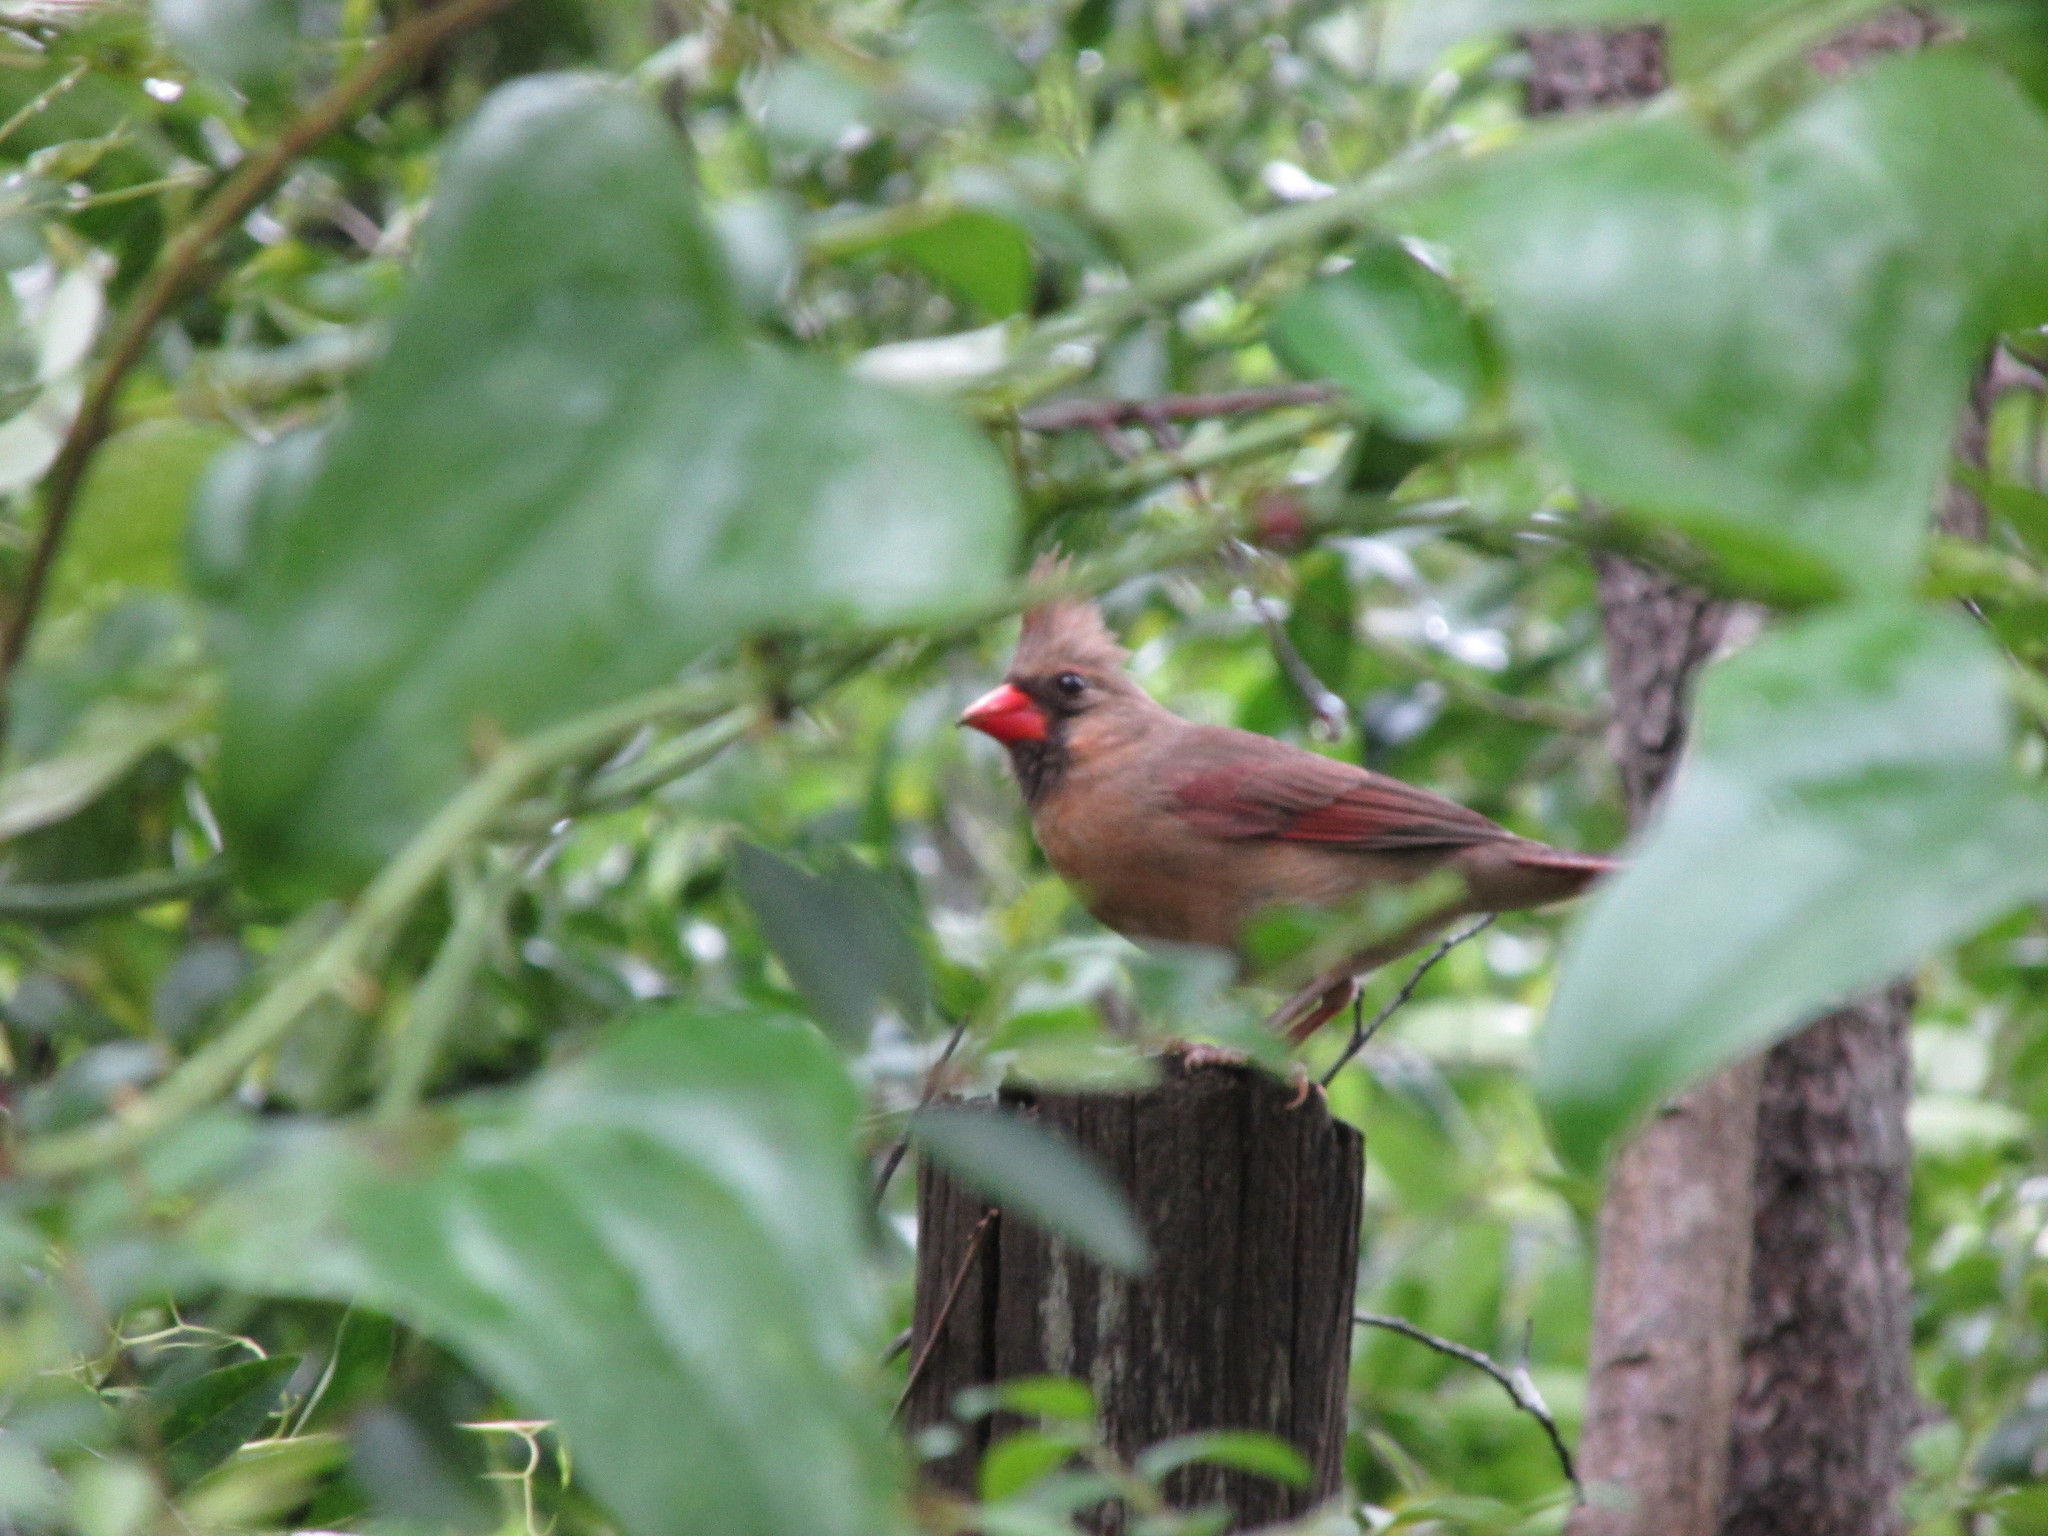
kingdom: Animalia
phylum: Chordata
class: Aves
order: Passeriformes
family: Cardinalidae
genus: Cardinalis
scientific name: Cardinalis cardinalis
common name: Northern cardinal
